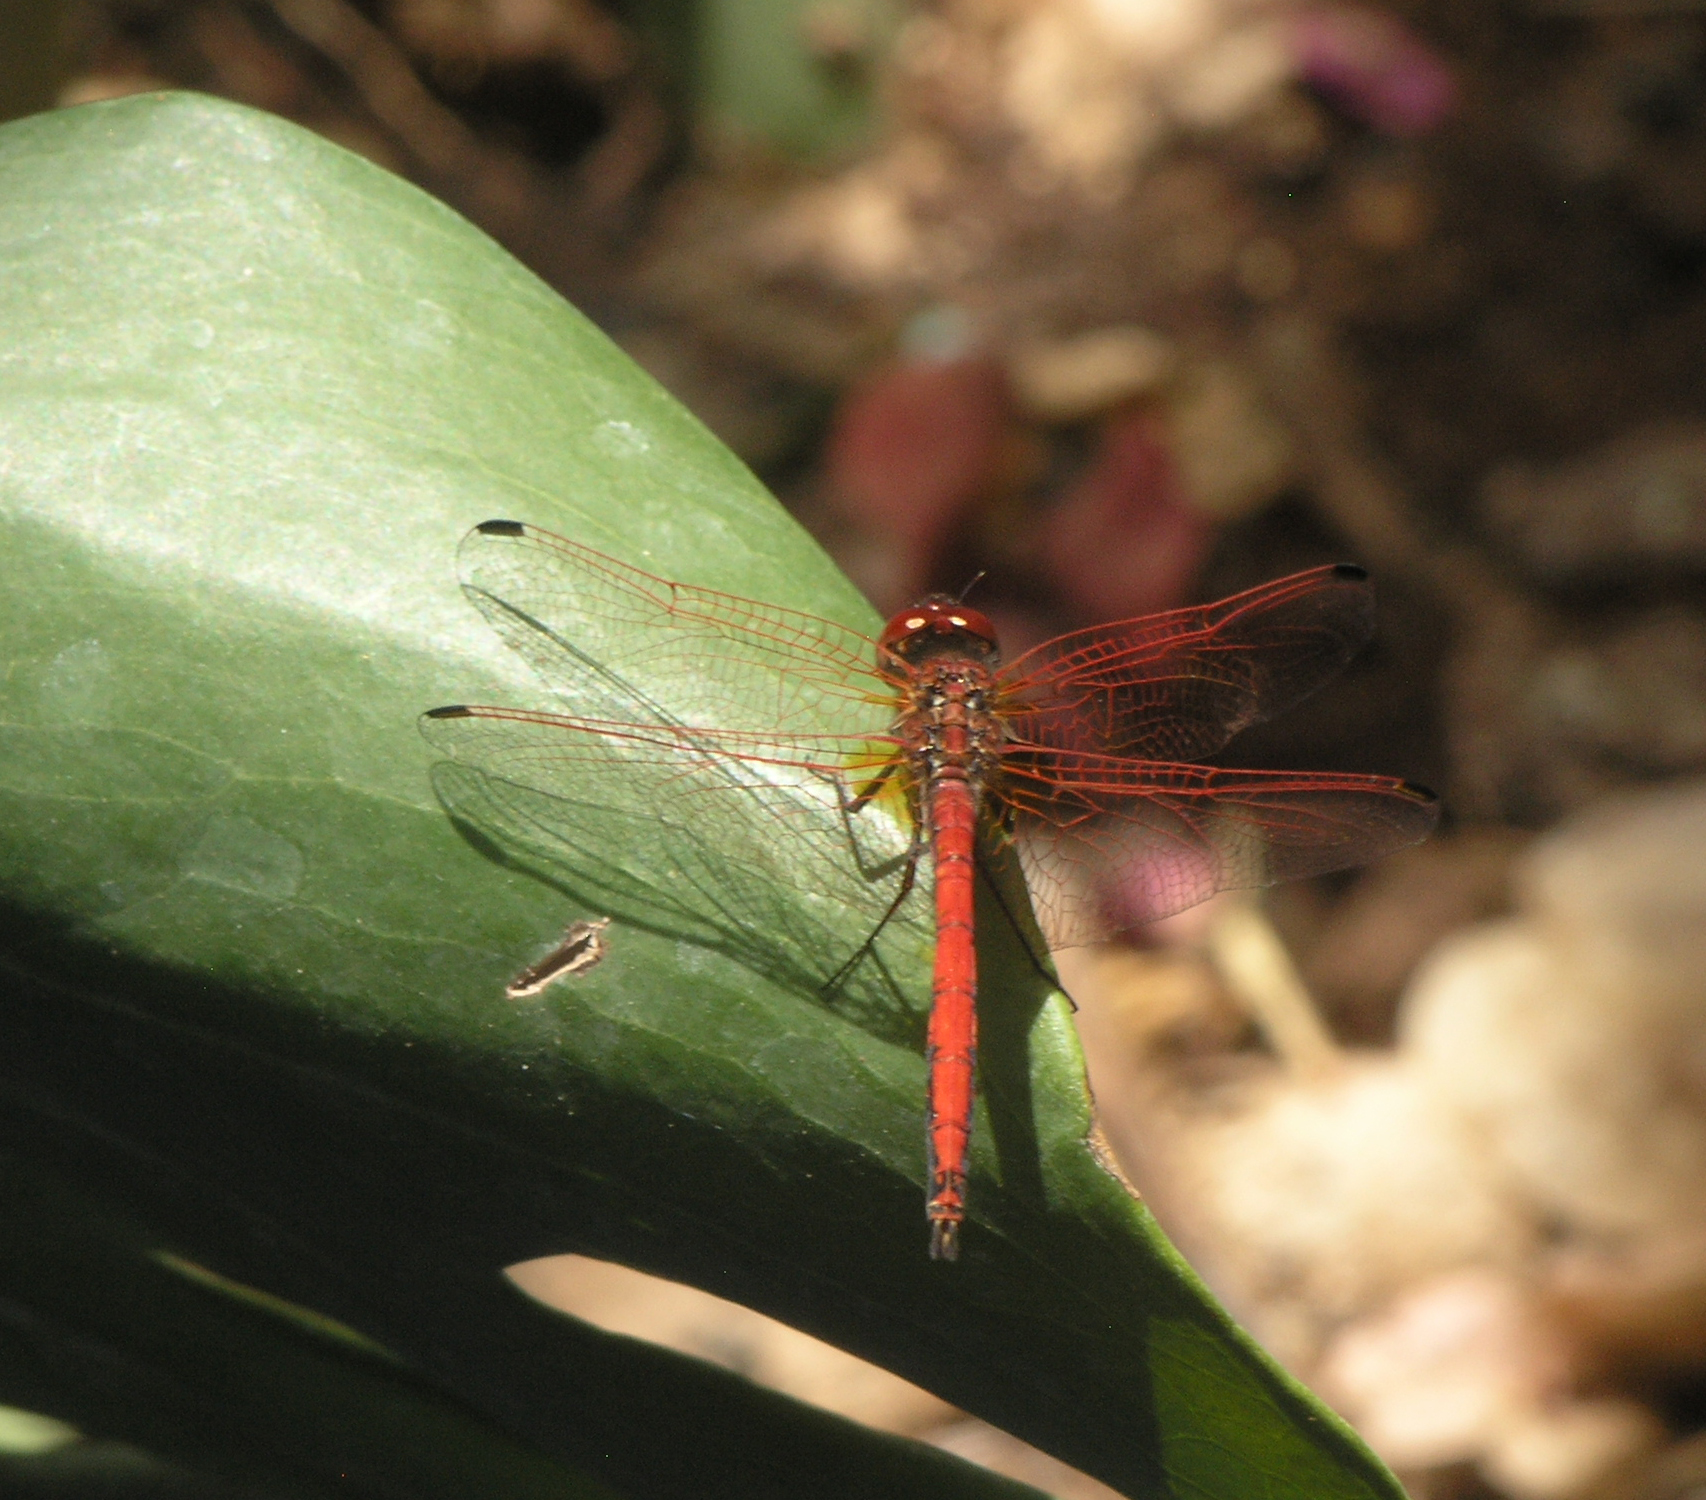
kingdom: Animalia
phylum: Arthropoda
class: Insecta
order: Odonata
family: Libellulidae
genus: Trithemis
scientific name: Trithemis arteriosa
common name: Red-veined dropwing
